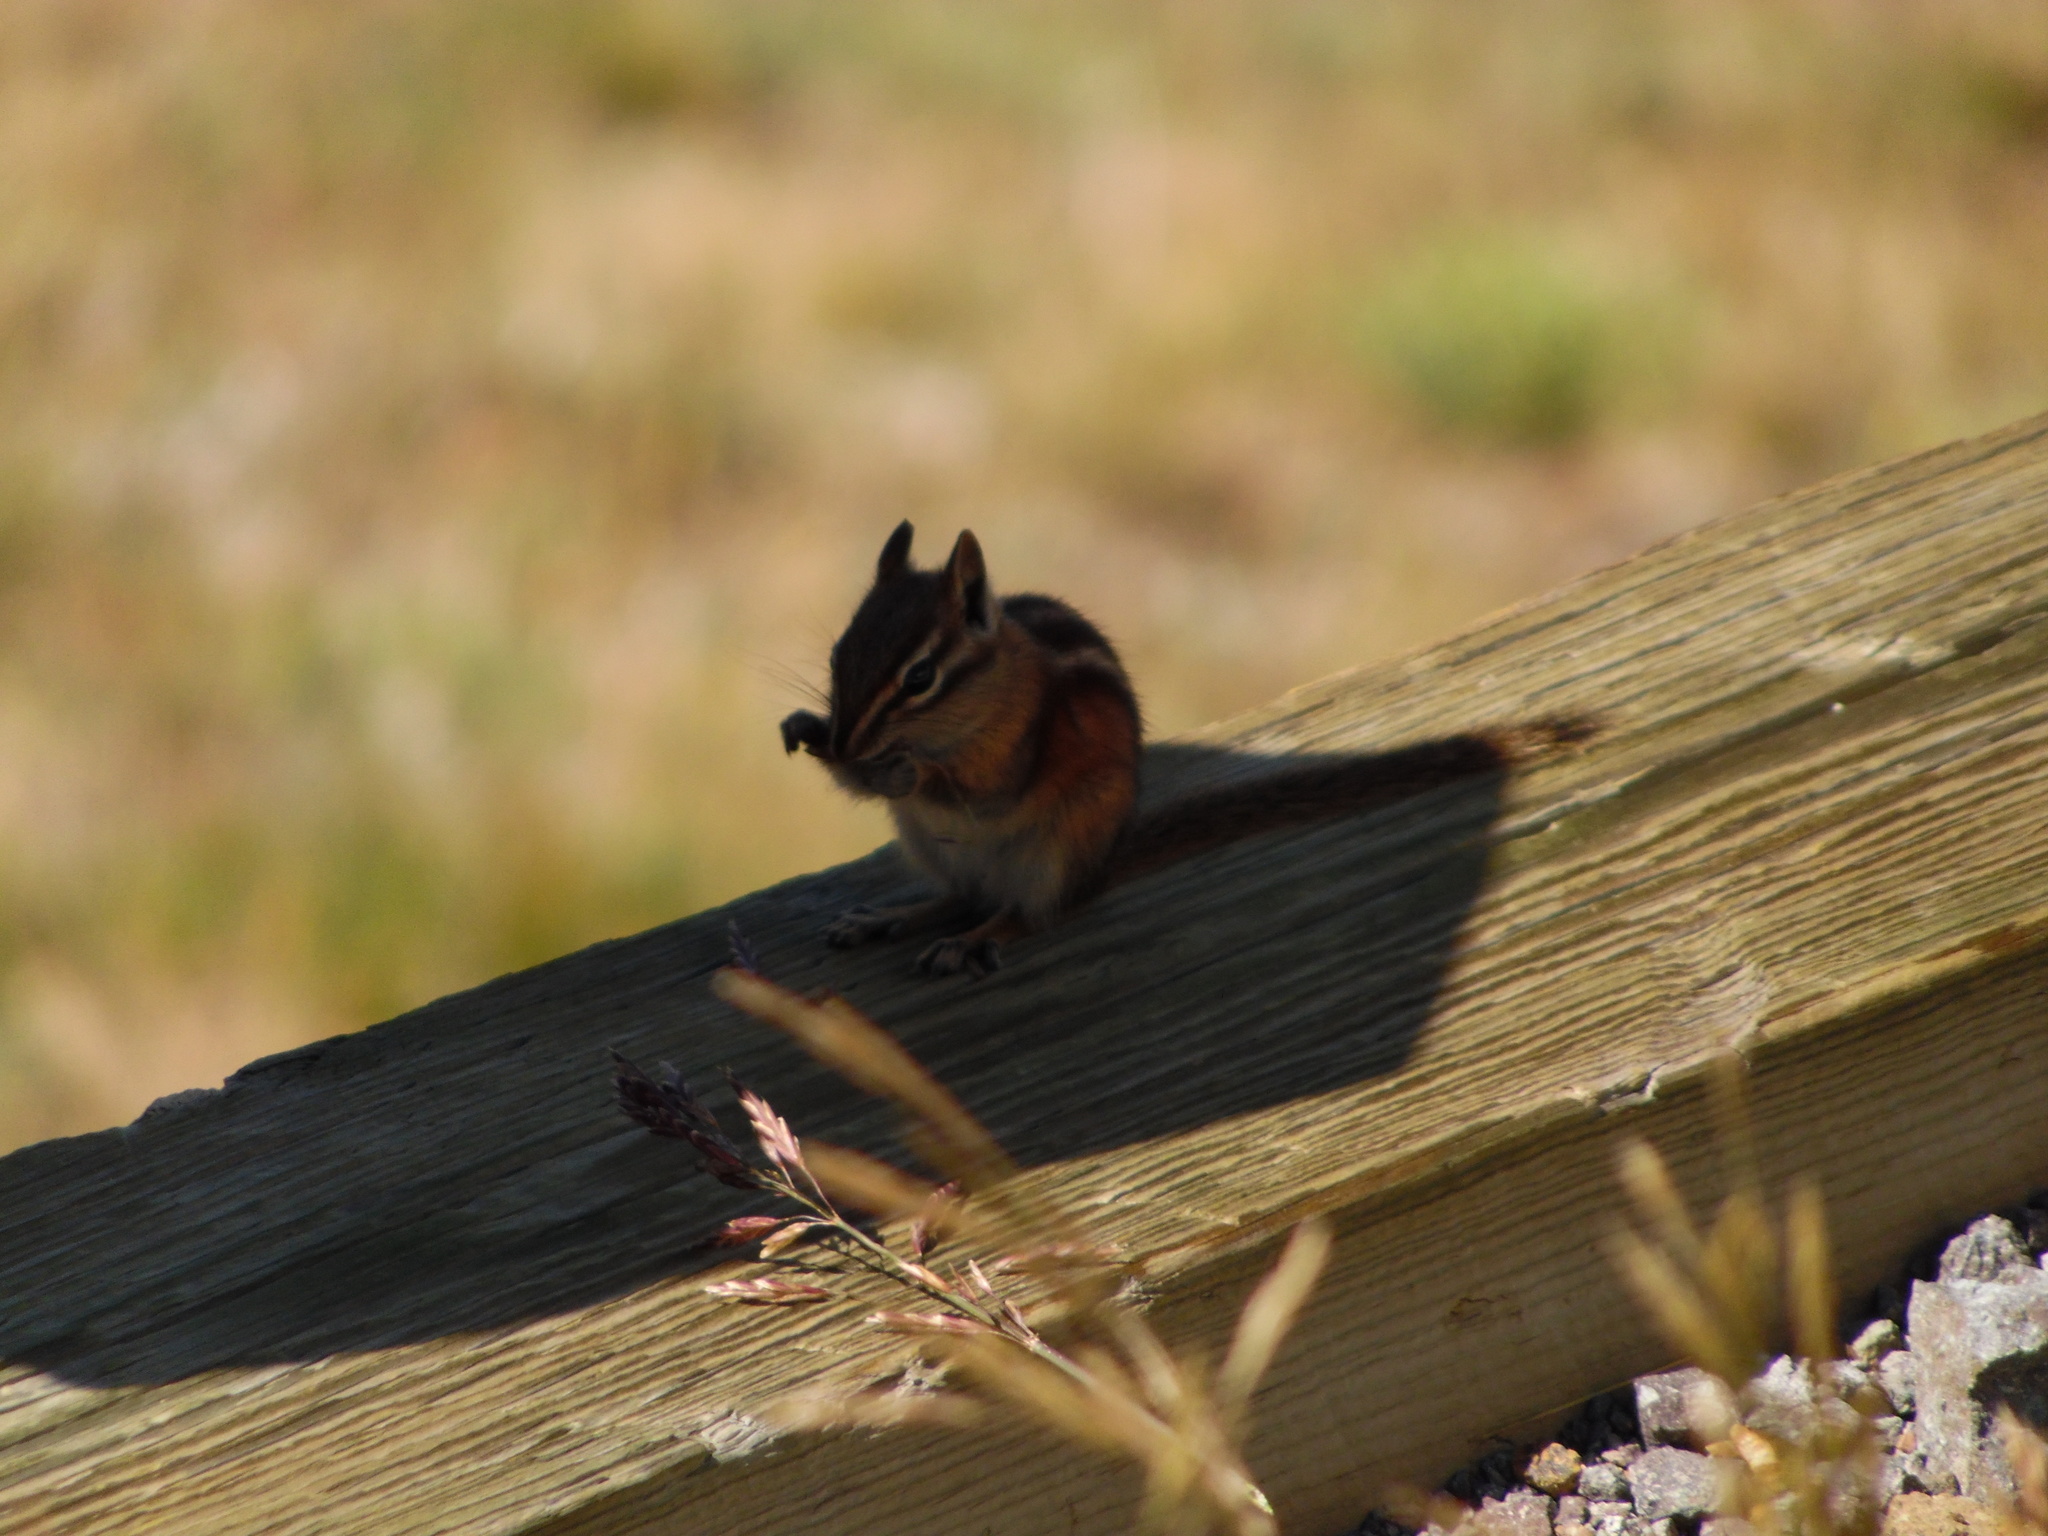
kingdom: Animalia
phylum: Chordata
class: Mammalia
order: Rodentia
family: Sciuridae
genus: Tamias
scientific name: Tamias minimus
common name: Least chipmunk
